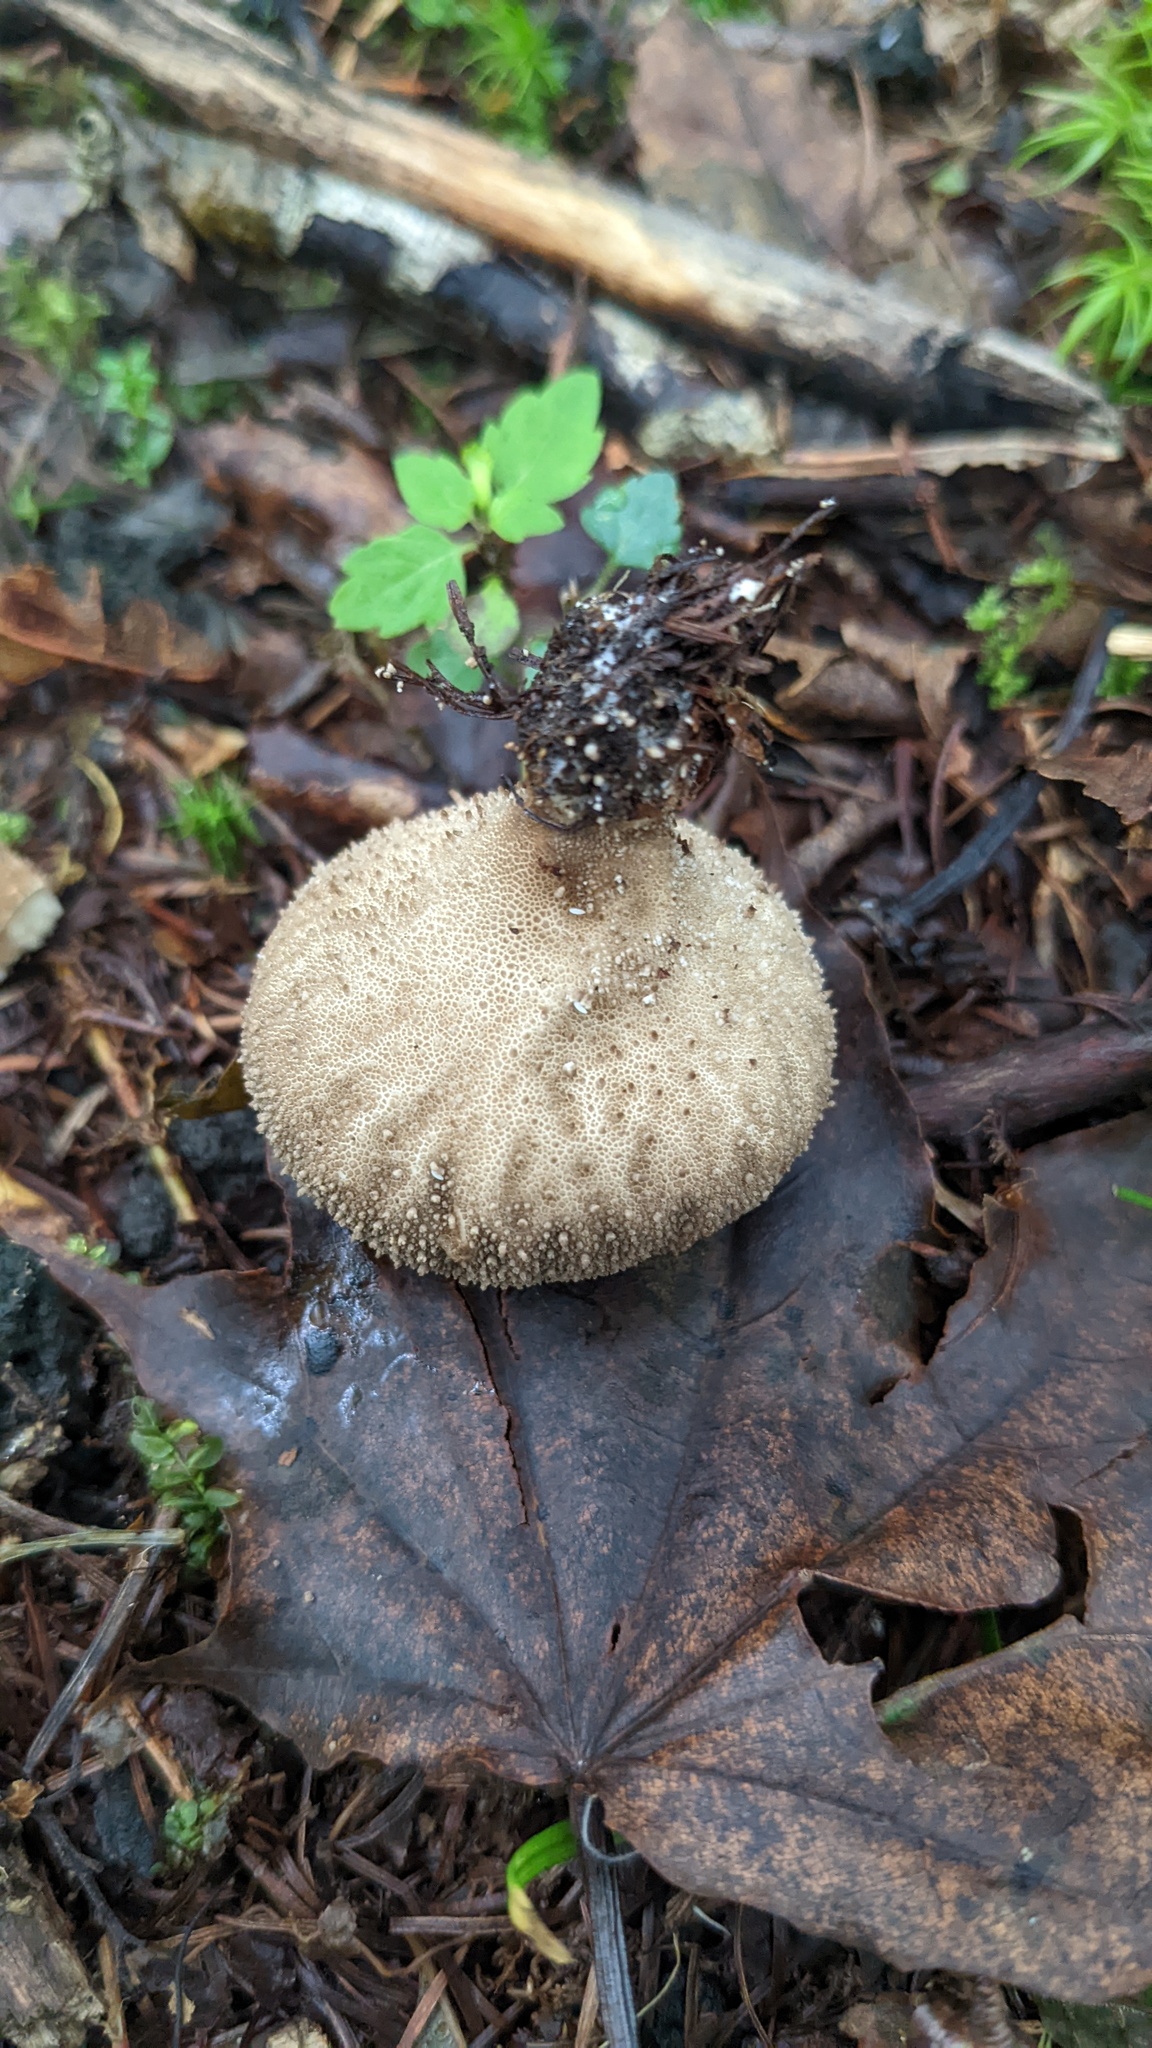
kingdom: Fungi
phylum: Basidiomycota
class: Agaricomycetes
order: Agaricales
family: Lycoperdaceae
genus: Lycoperdon
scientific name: Lycoperdon perlatum
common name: Common puffball
